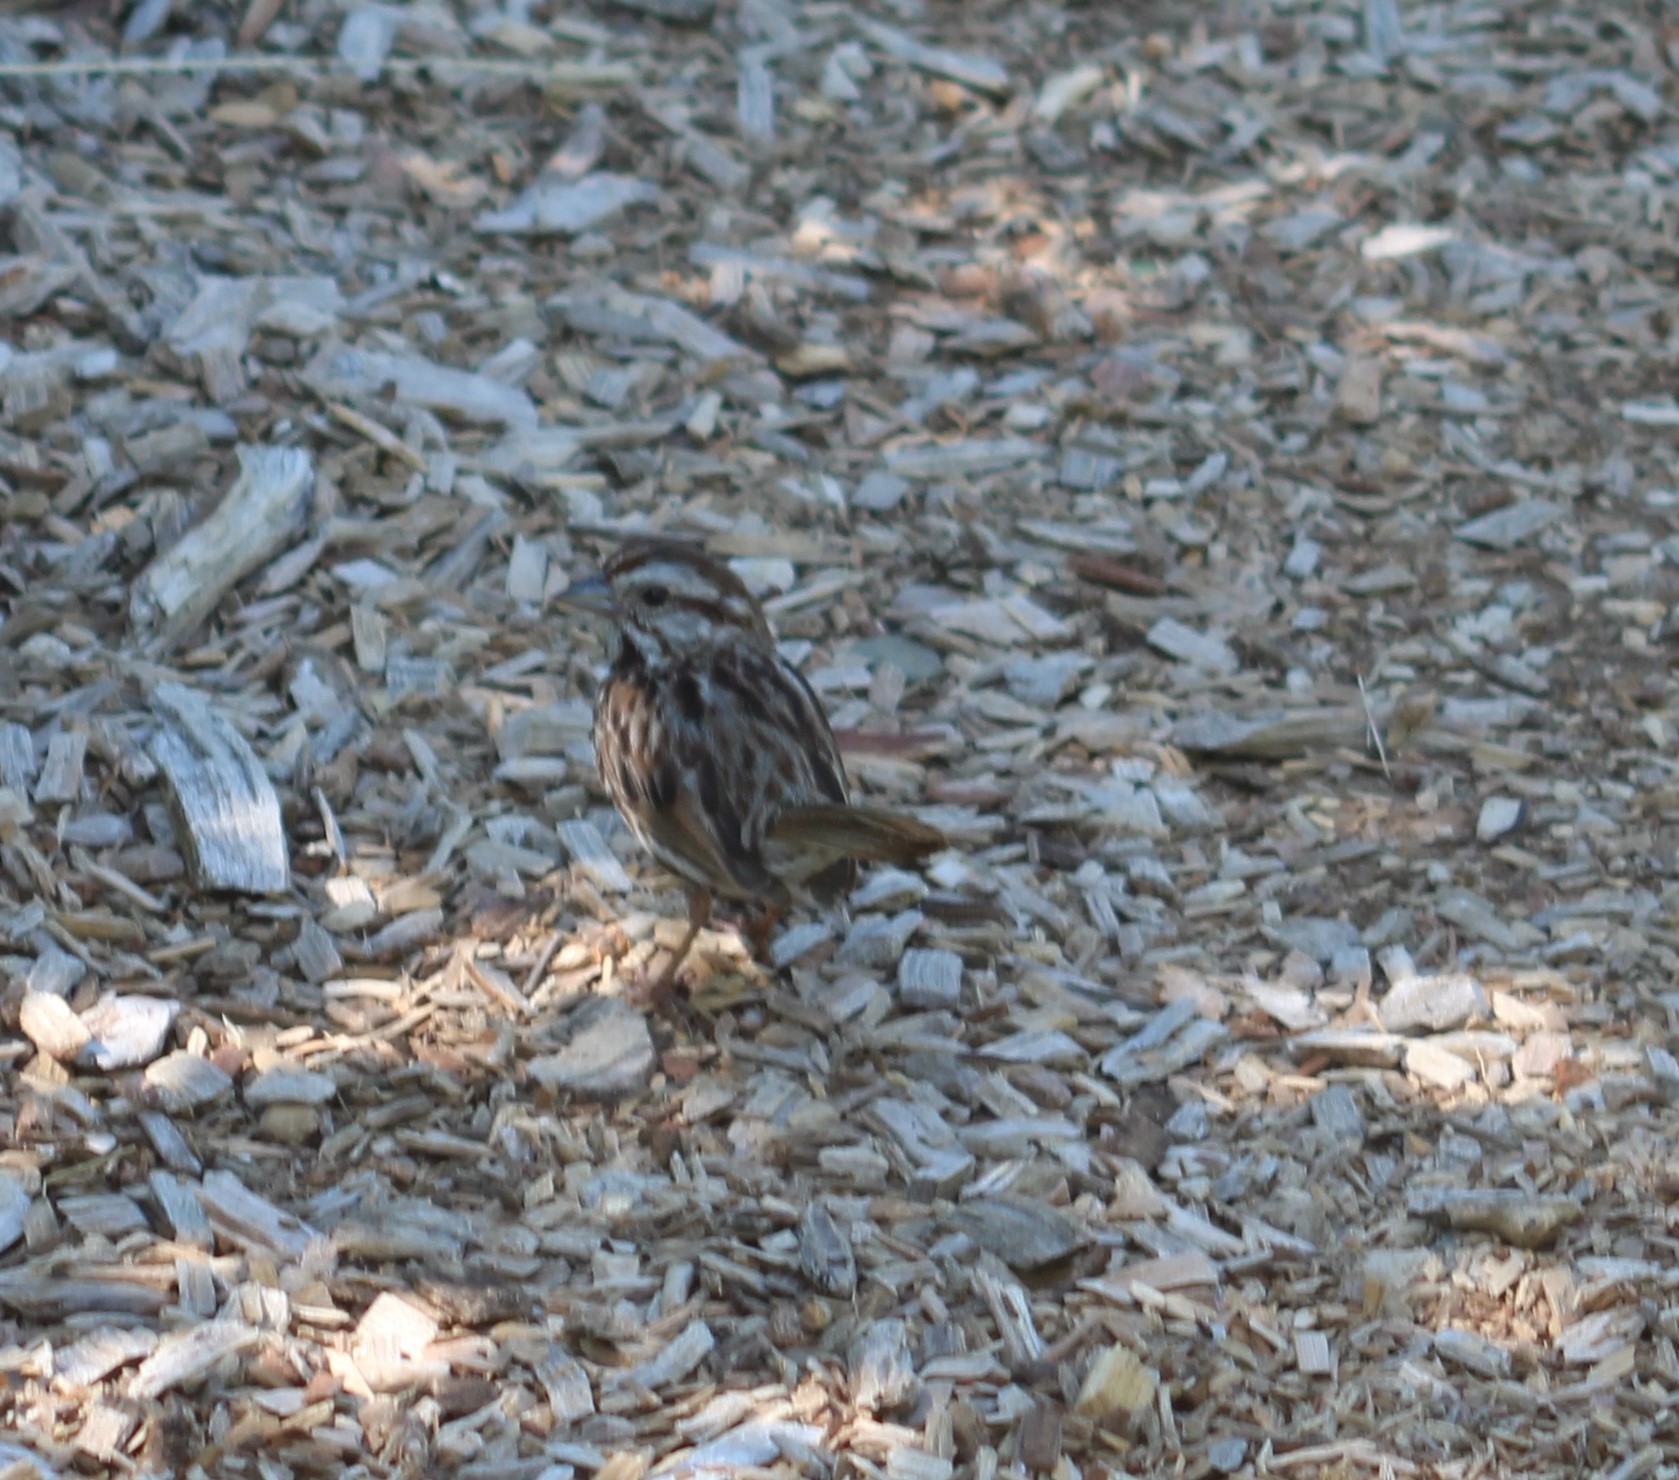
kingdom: Animalia
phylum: Chordata
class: Aves
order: Passeriformes
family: Passerellidae
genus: Melospiza
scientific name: Melospiza melodia
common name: Song sparrow
